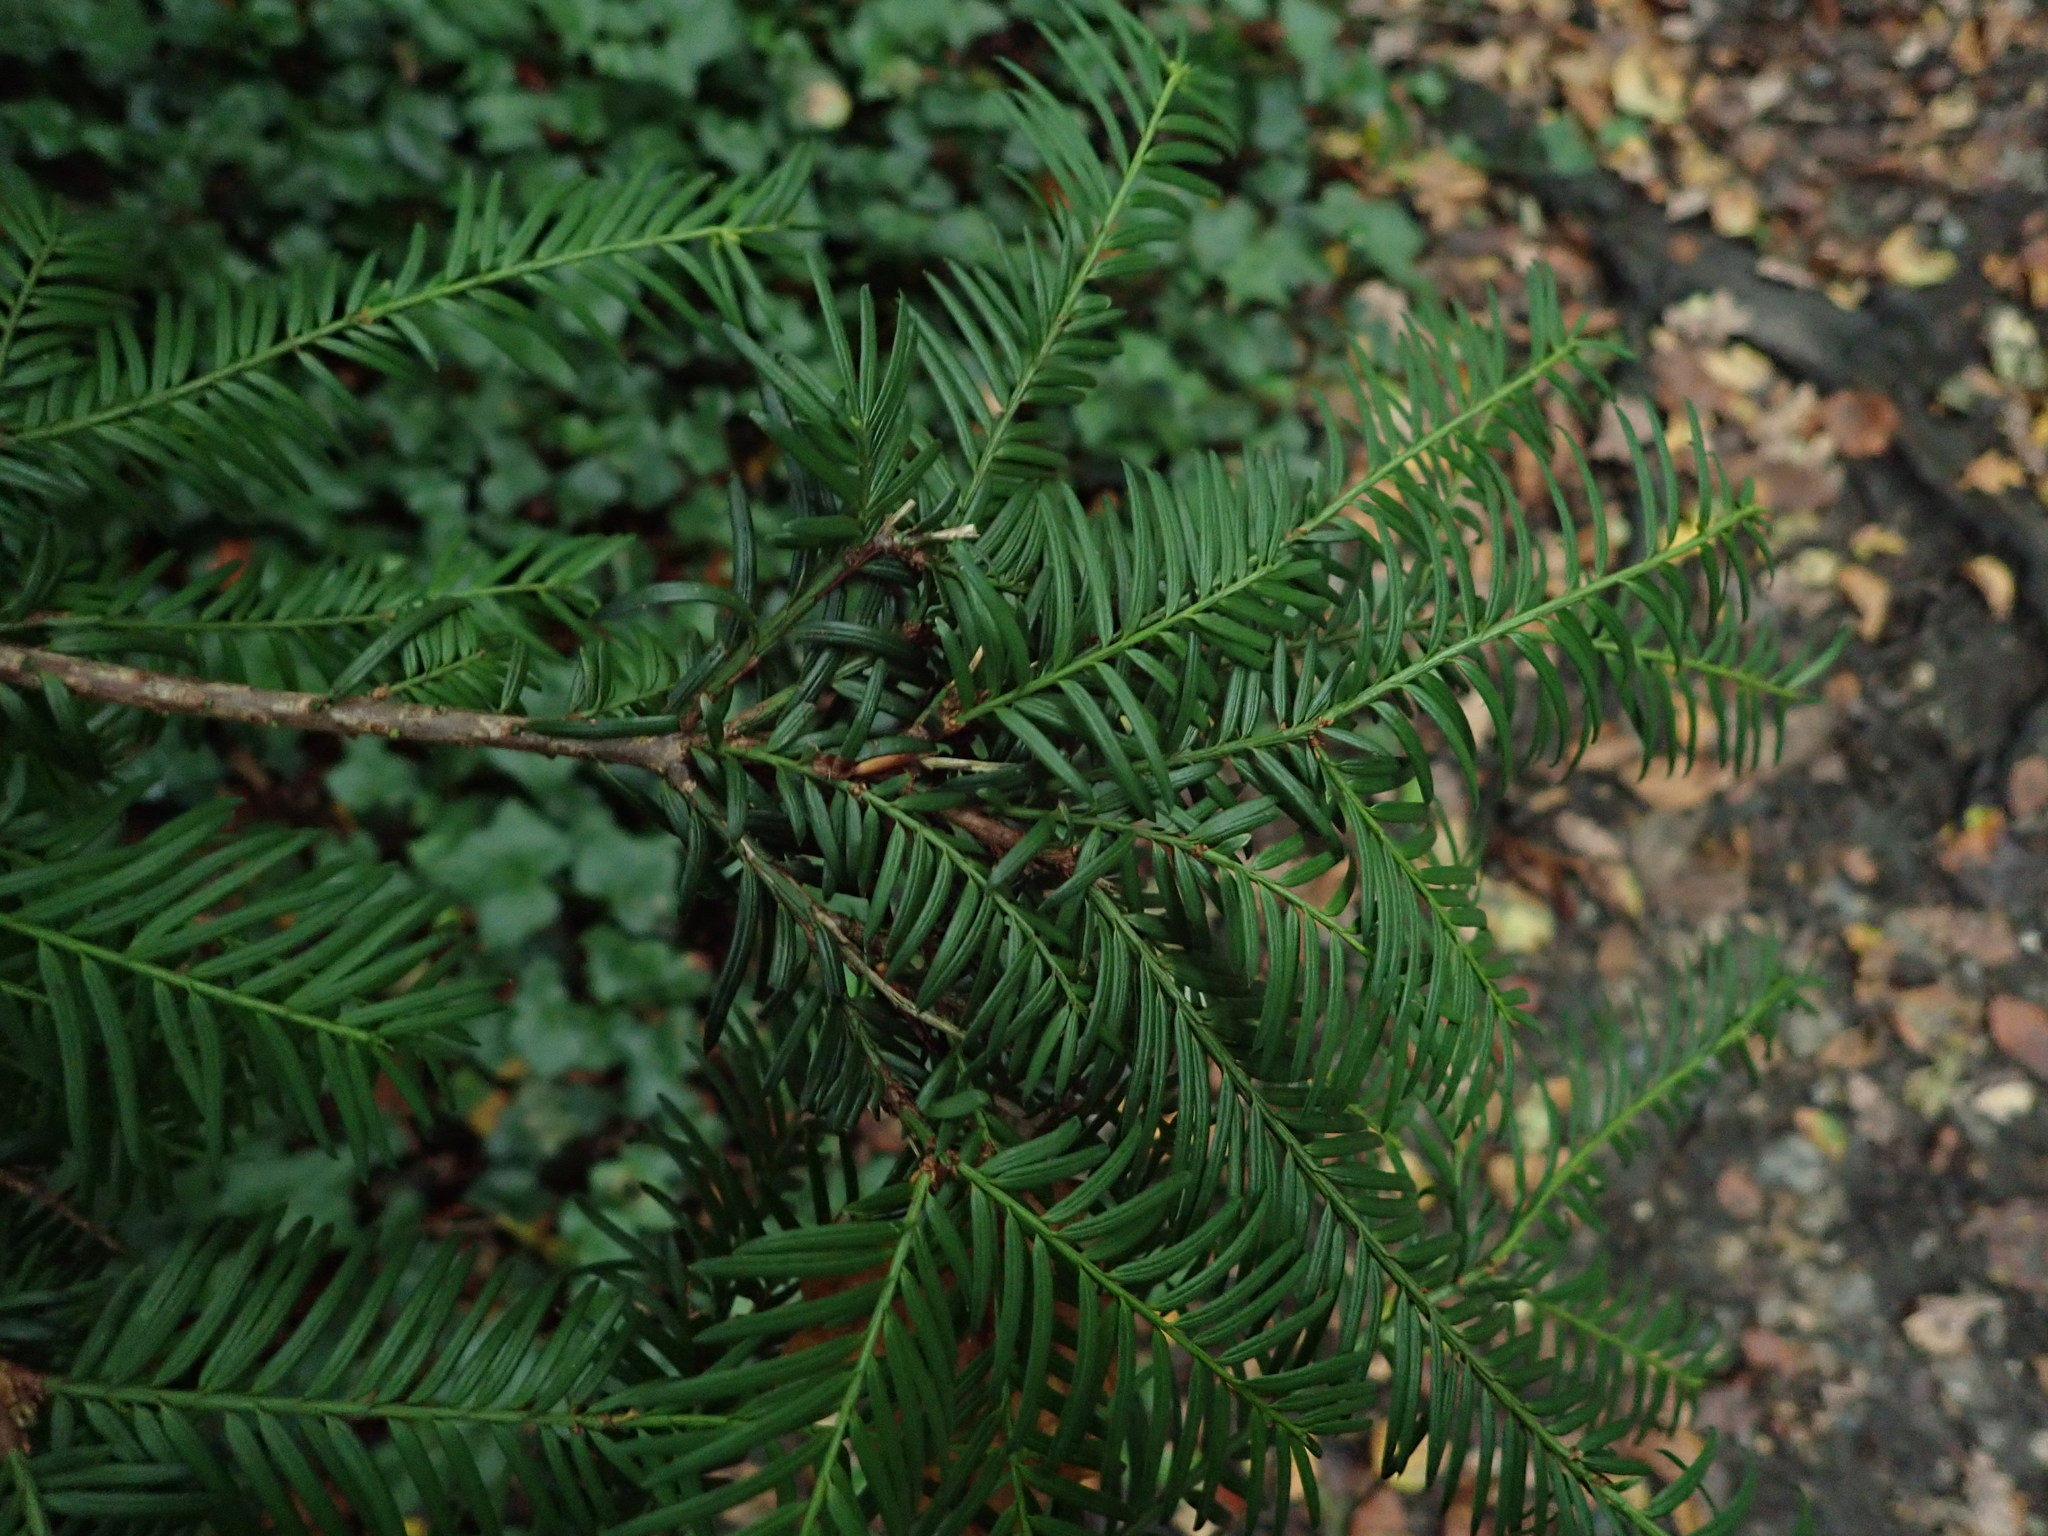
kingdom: Plantae
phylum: Tracheophyta
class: Pinopsida
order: Pinales
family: Taxaceae
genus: Taxus
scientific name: Taxus baccata
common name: Yew
